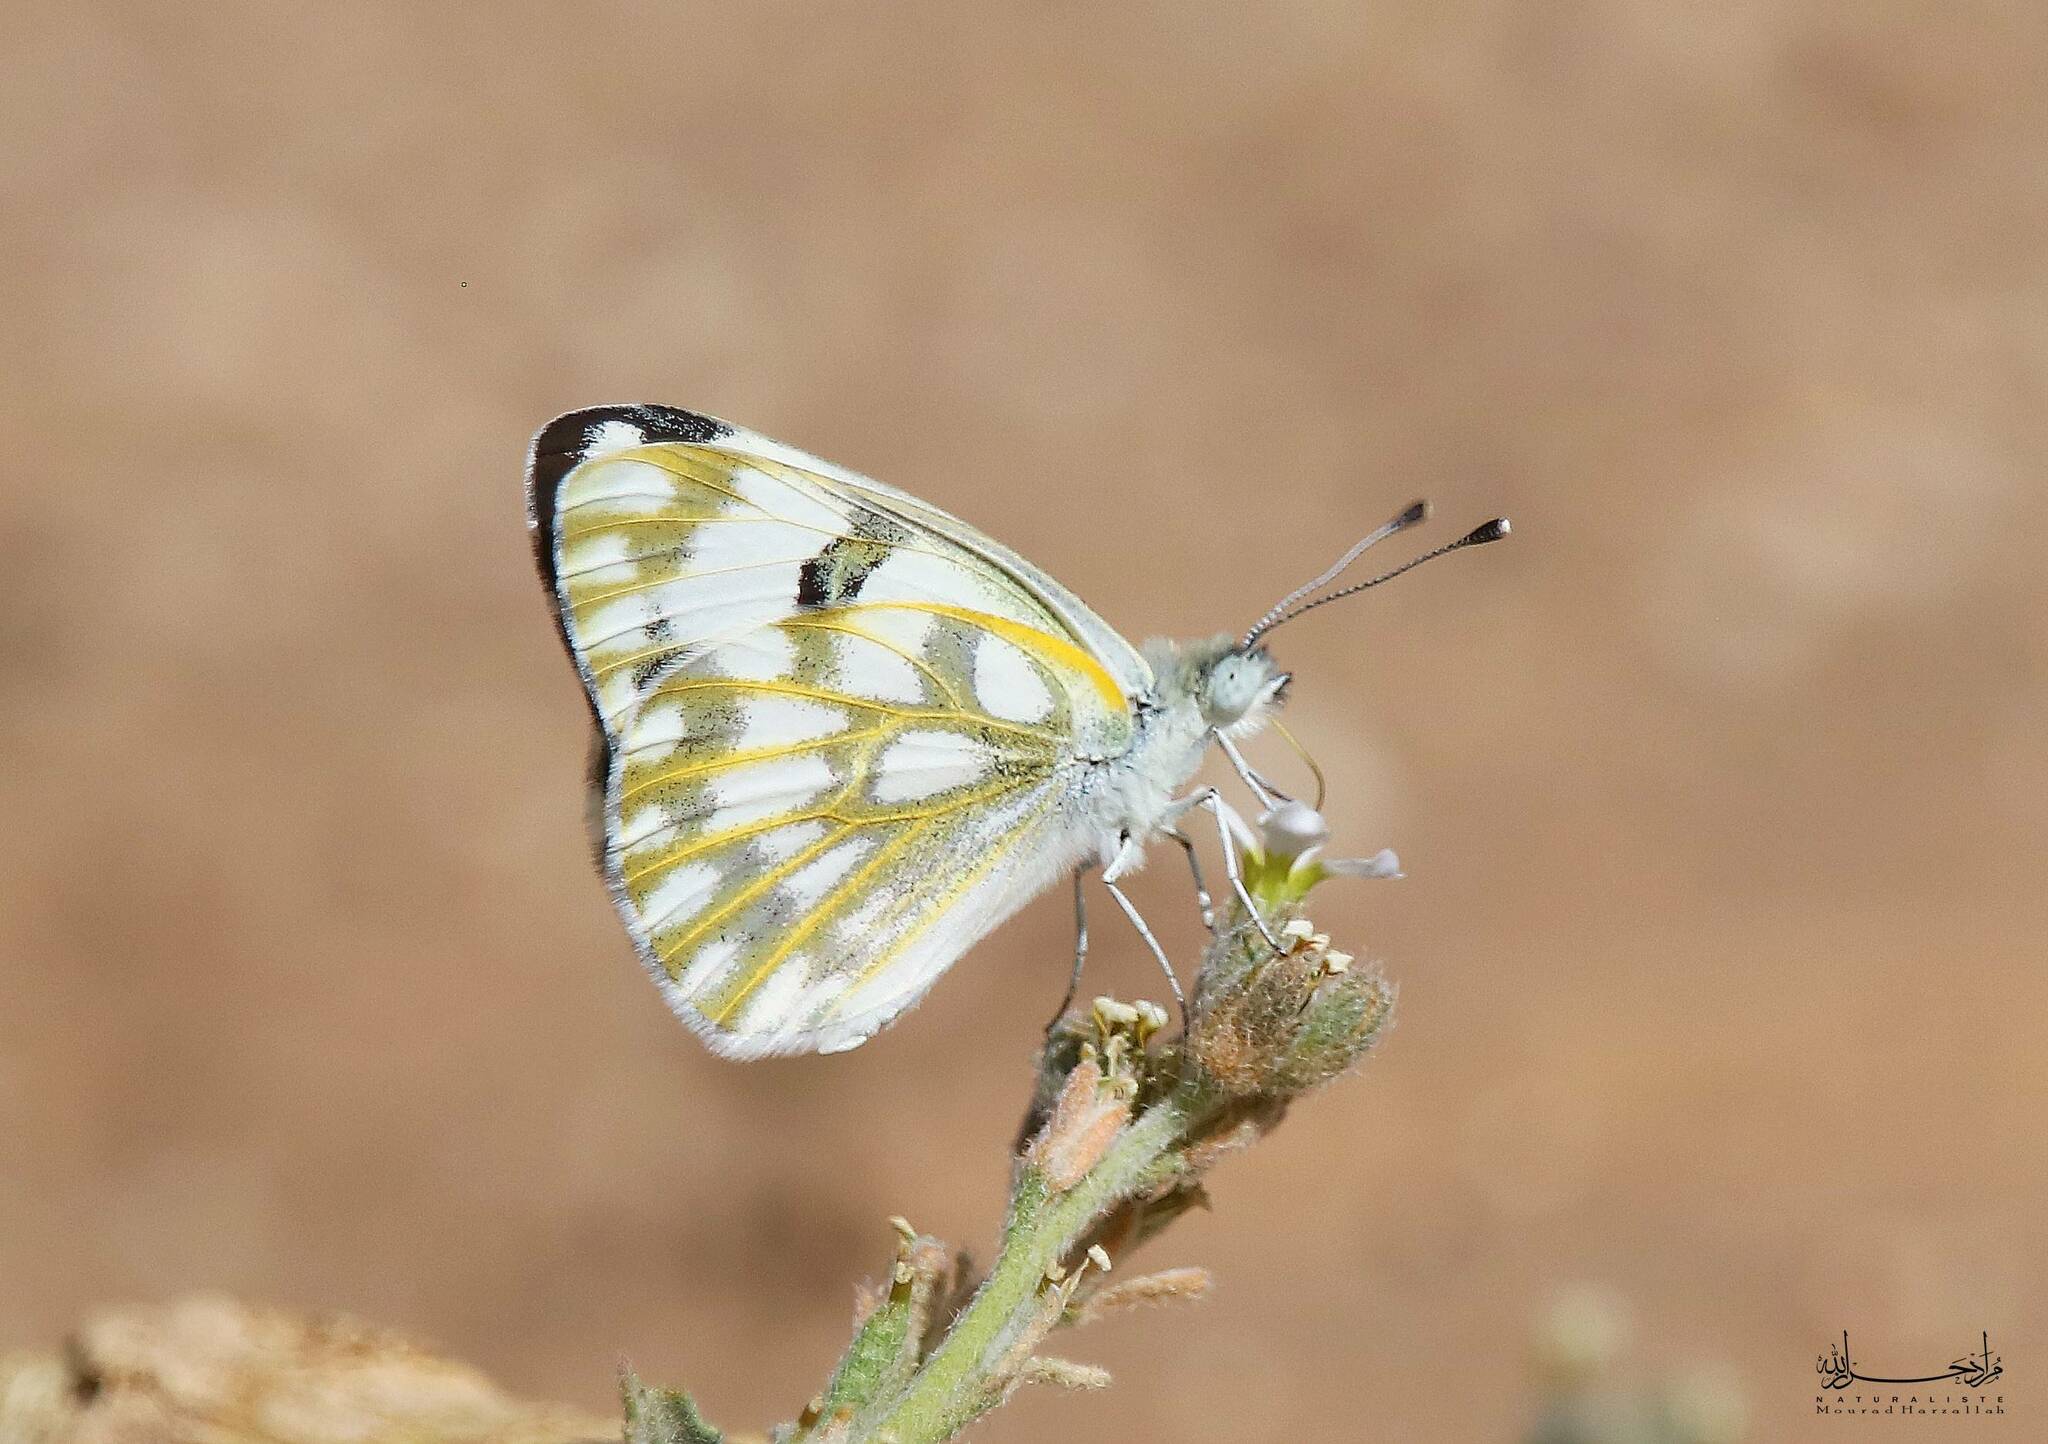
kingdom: Animalia
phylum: Arthropoda
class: Insecta
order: Lepidoptera
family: Pieridae
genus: Pontia
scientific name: Pontia glauconome
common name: Desert bath white
